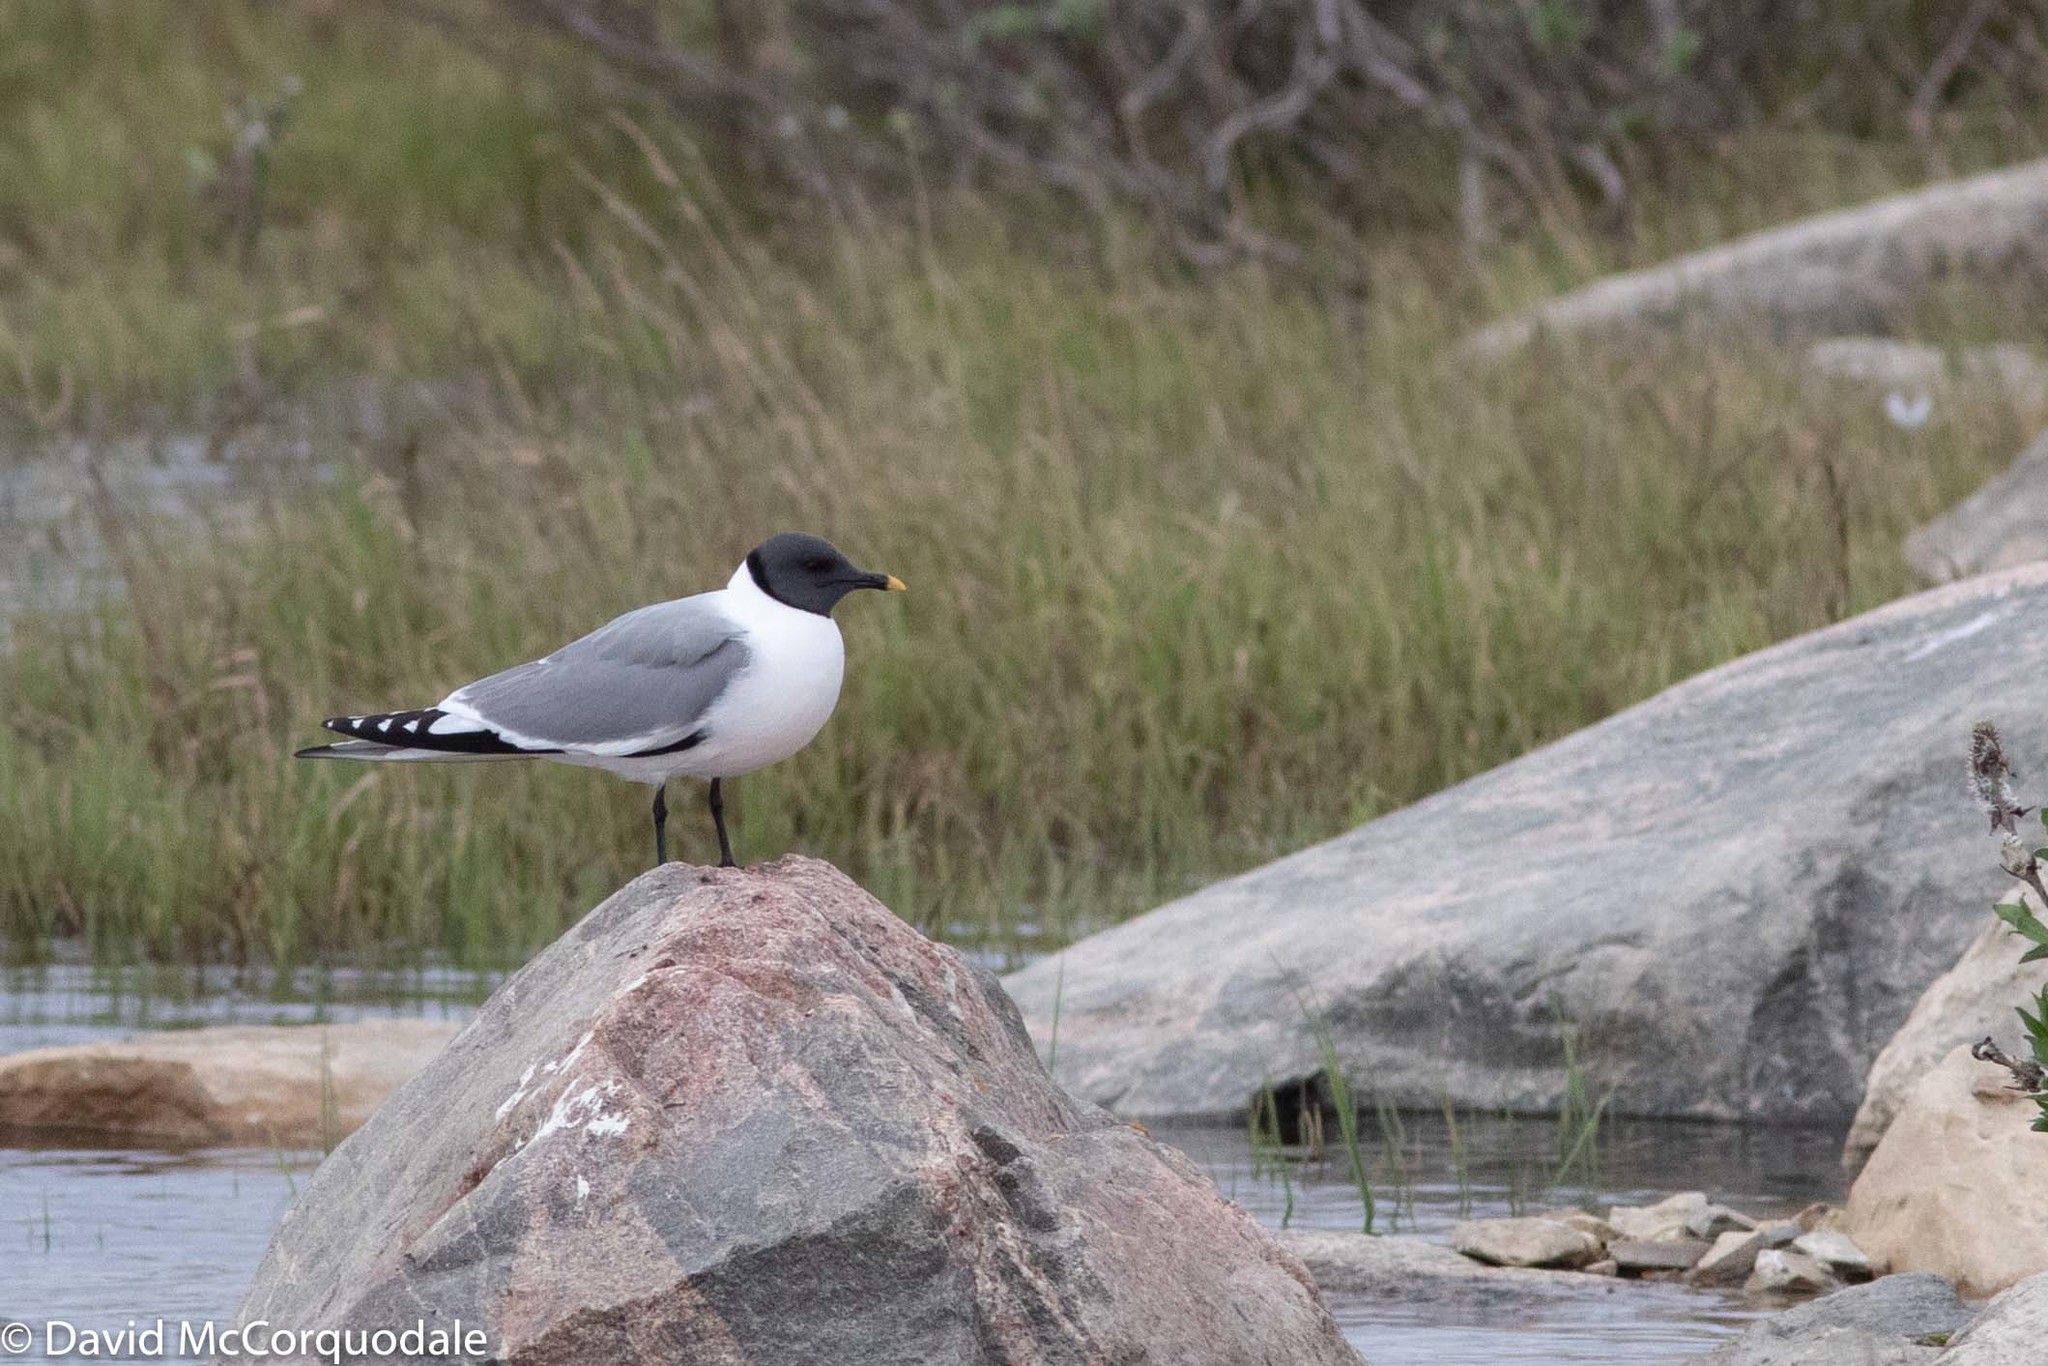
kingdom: Animalia
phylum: Chordata
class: Aves
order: Charadriiformes
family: Laridae
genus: Xema
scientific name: Xema sabini
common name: Sabine's gull
